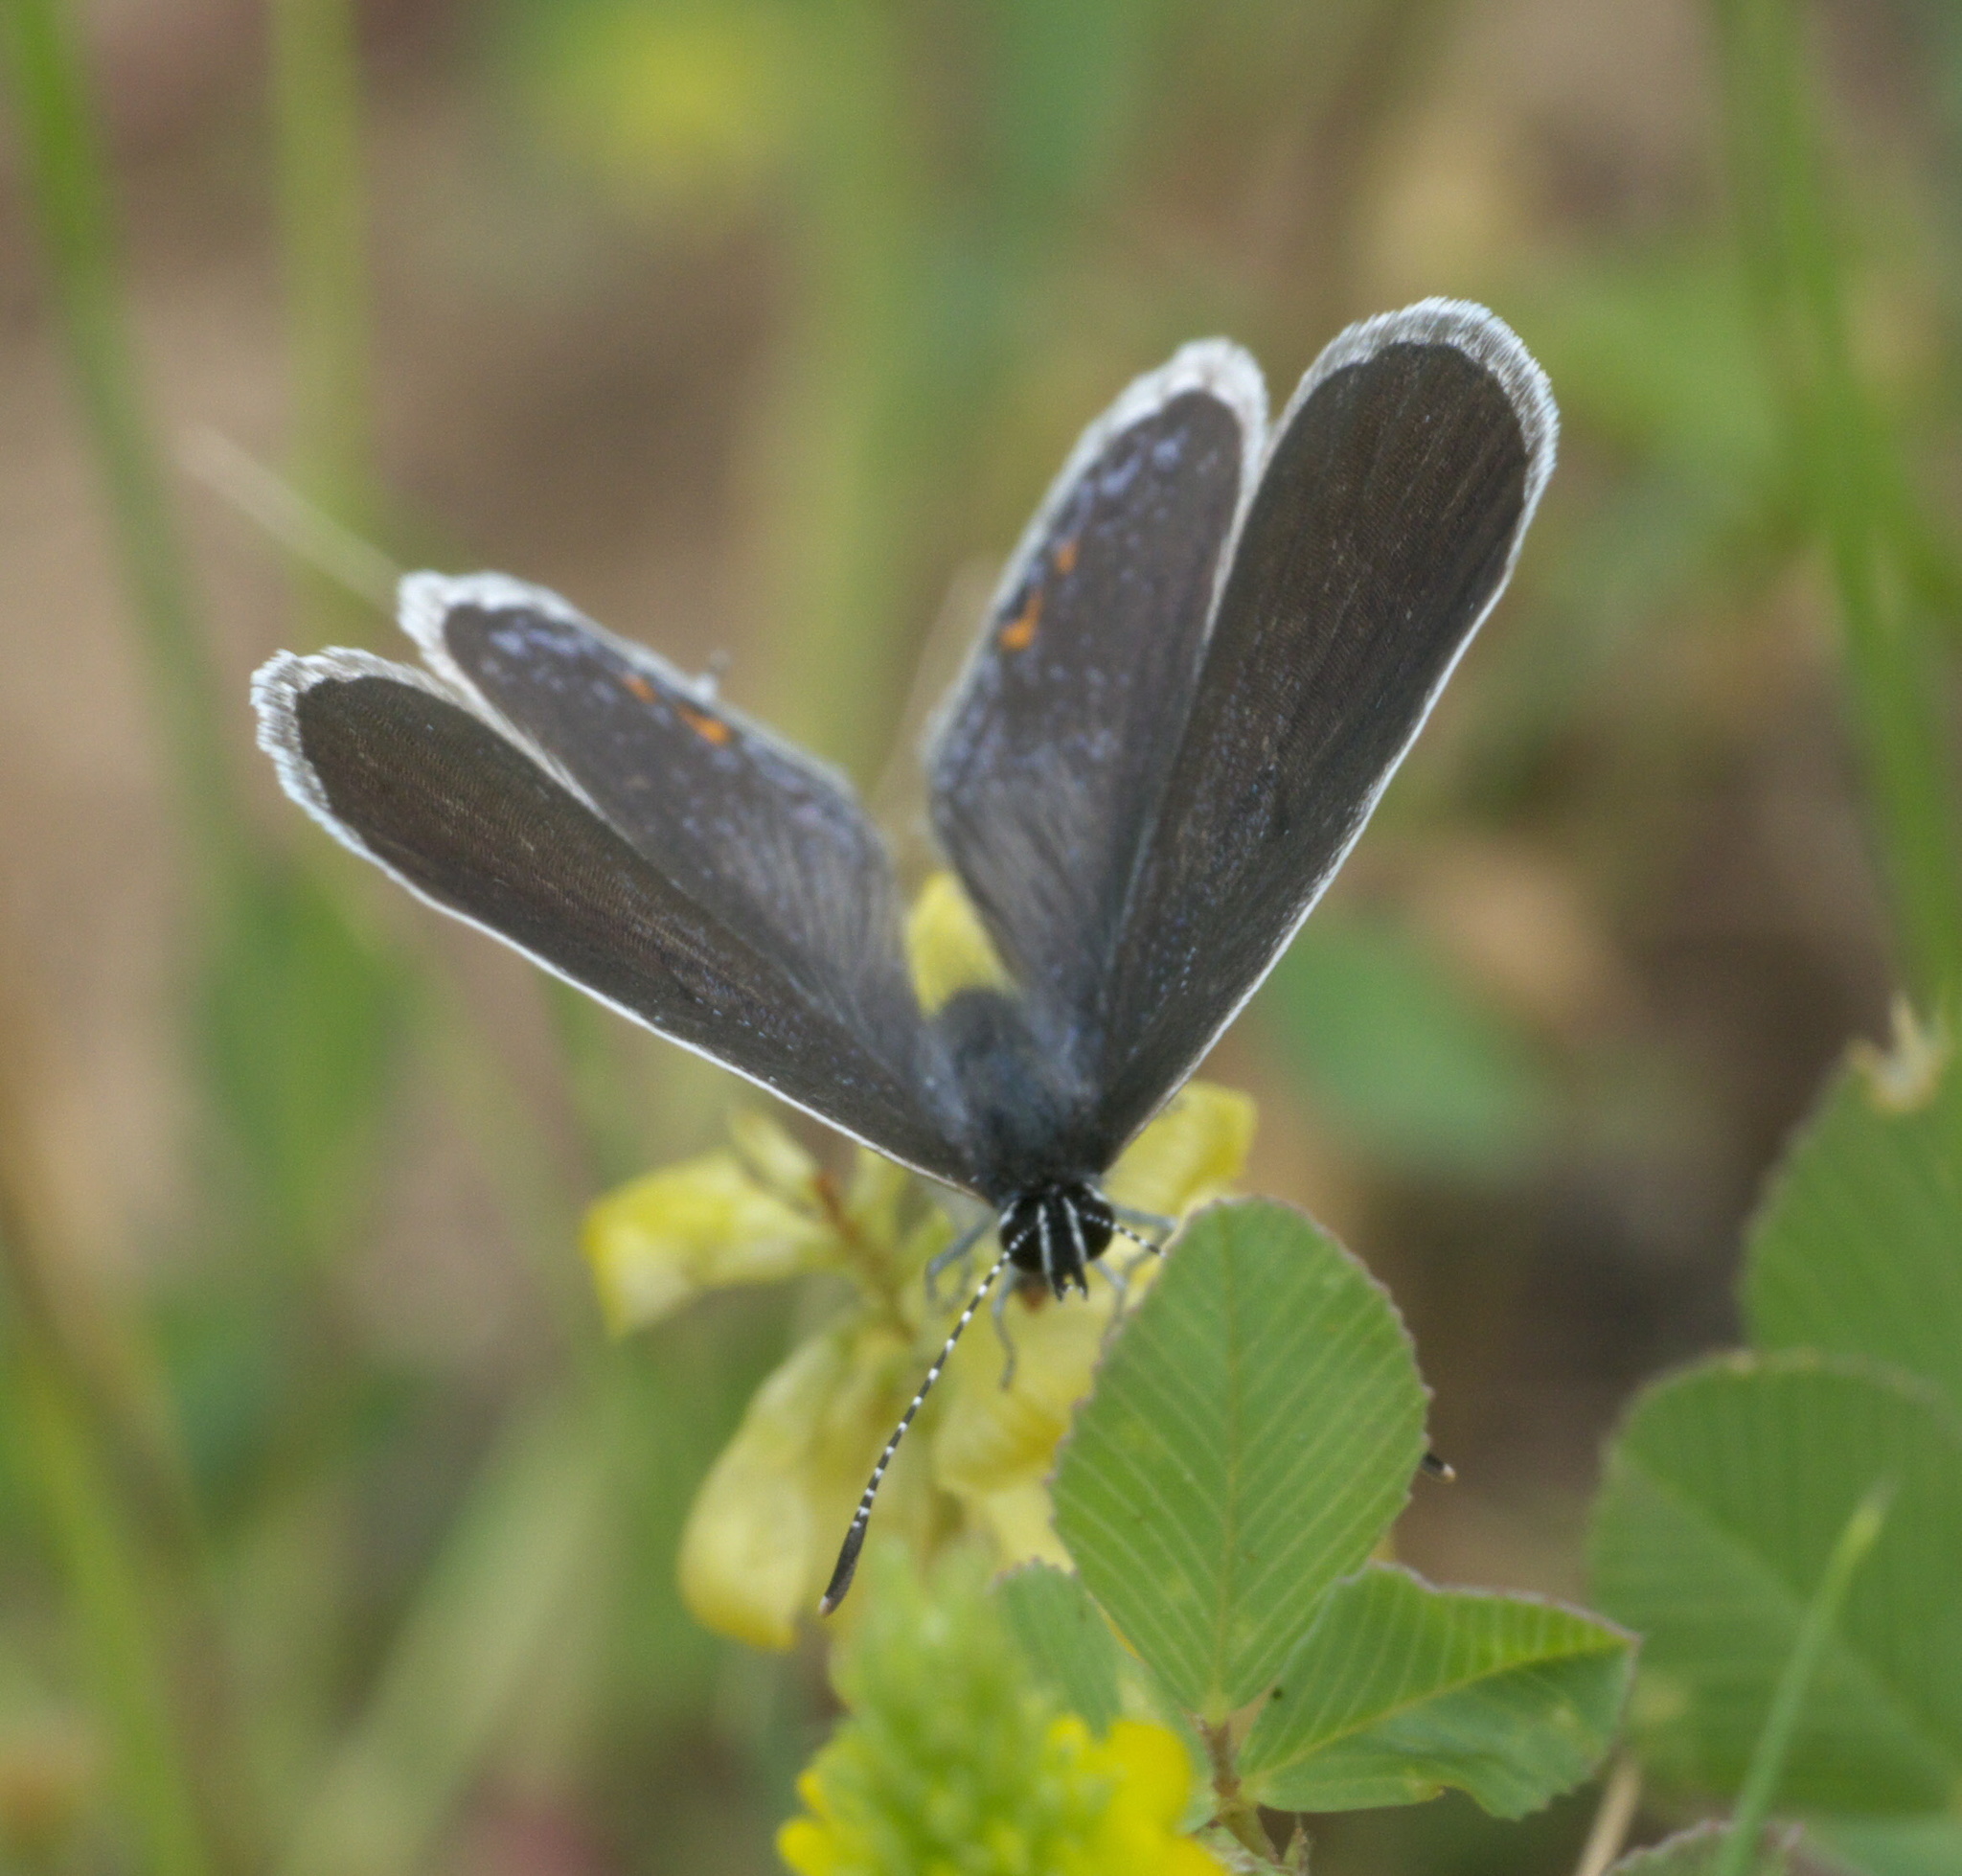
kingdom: Animalia
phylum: Arthropoda
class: Insecta
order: Lepidoptera
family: Lycaenidae
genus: Elkalyce
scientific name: Elkalyce comyntas
